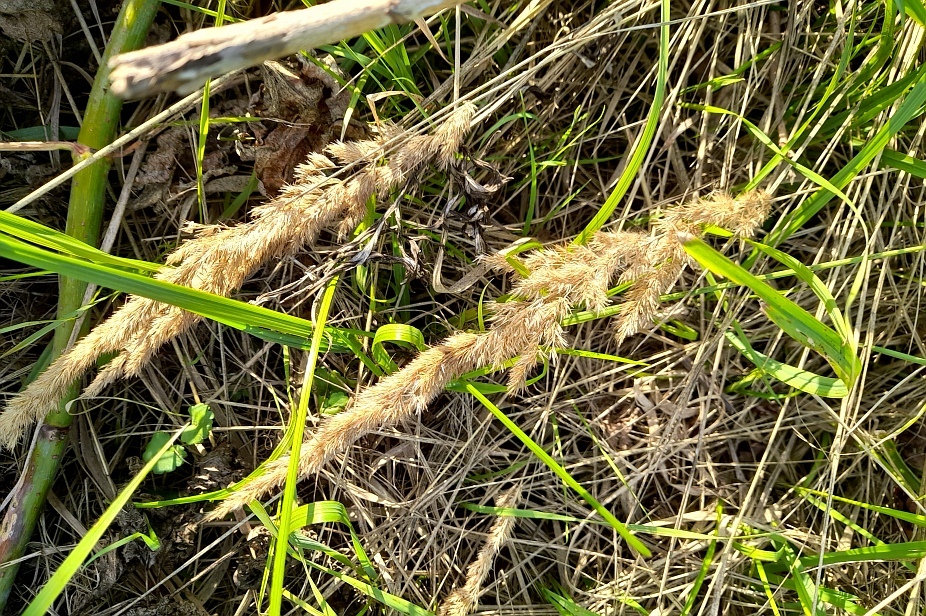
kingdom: Plantae
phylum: Tracheophyta
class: Liliopsida
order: Poales
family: Poaceae
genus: Calamagrostis
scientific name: Calamagrostis epigejos
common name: Wood small-reed
